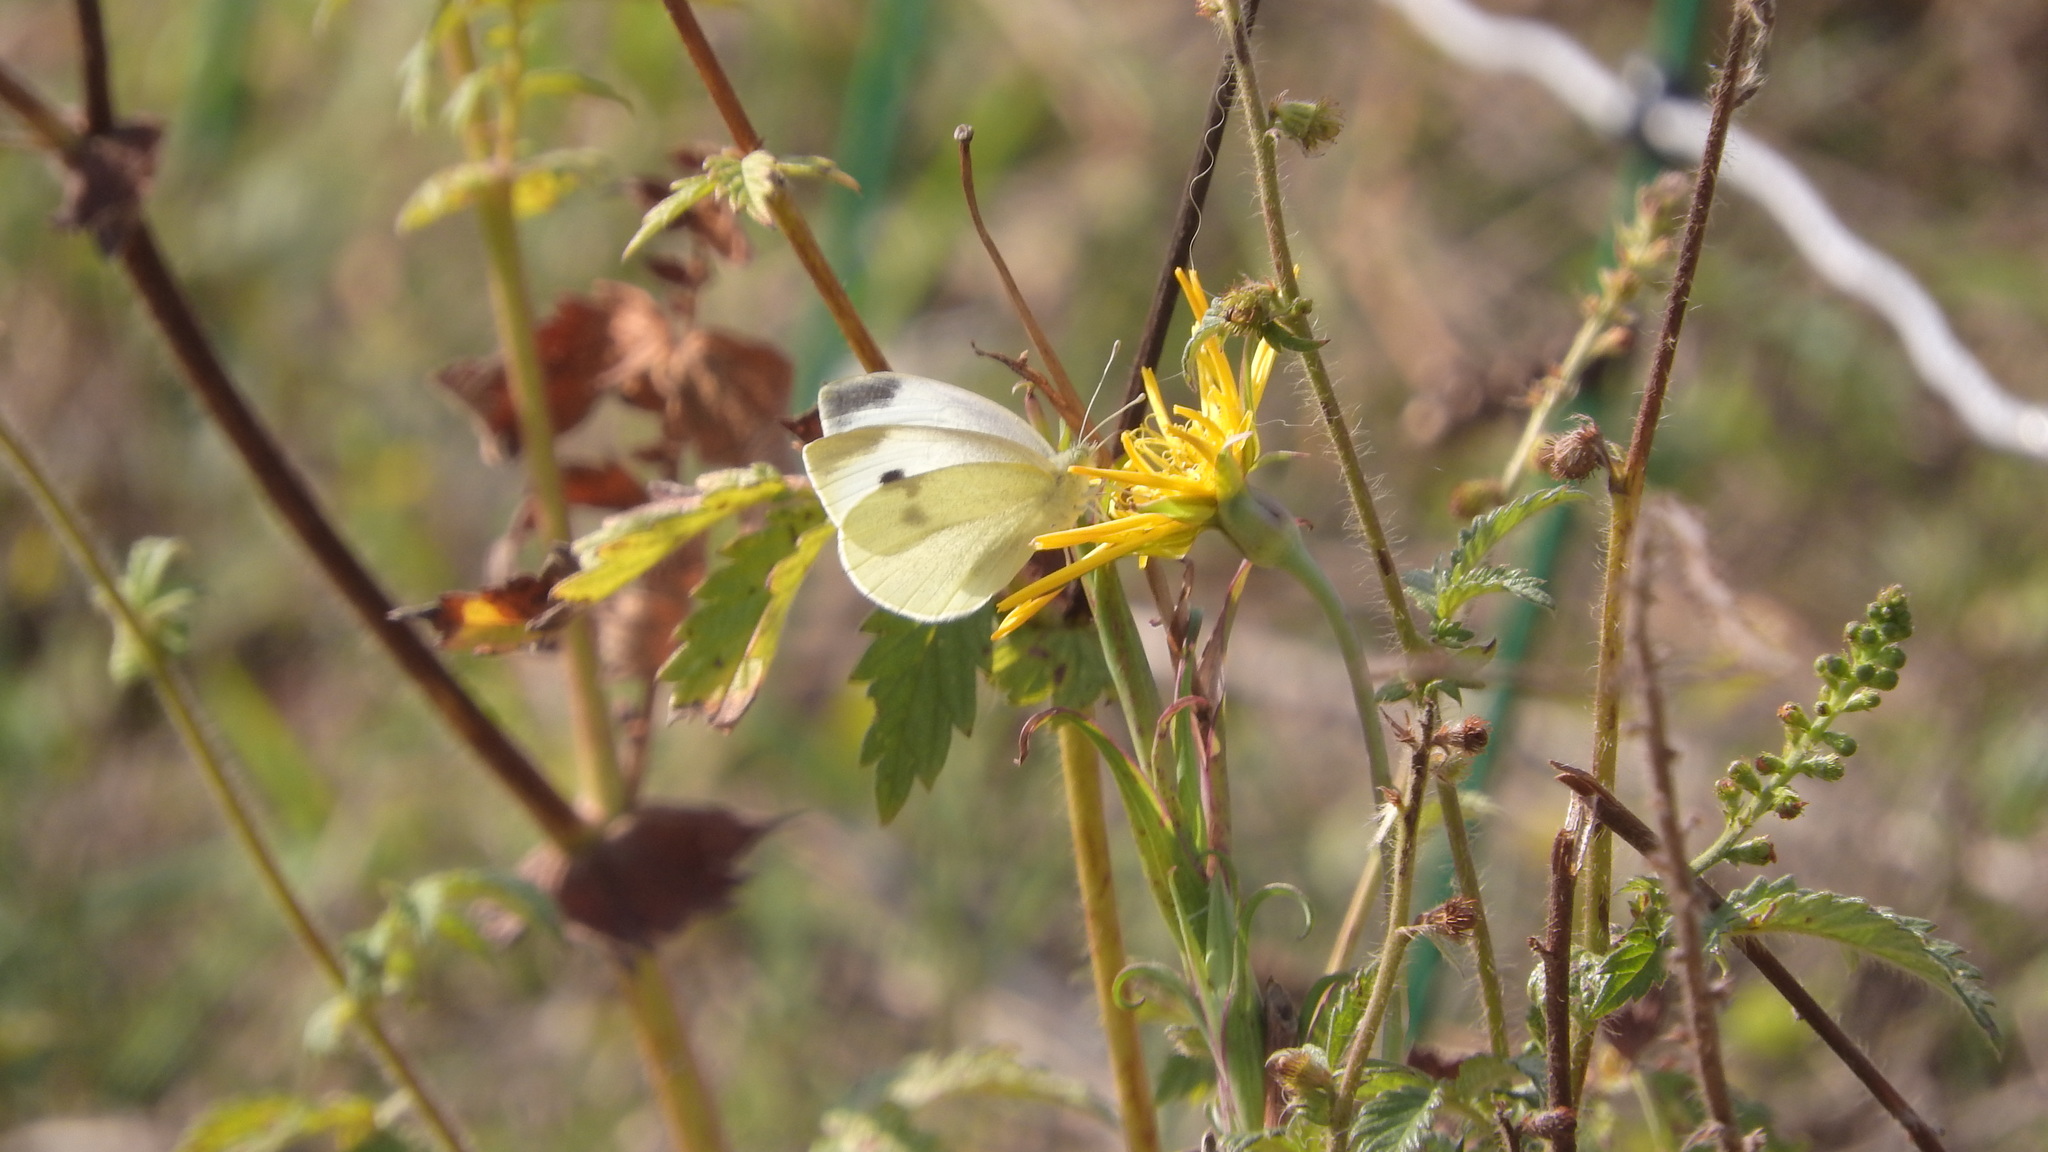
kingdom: Animalia
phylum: Arthropoda
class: Insecta
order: Lepidoptera
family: Pieridae
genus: Pieris
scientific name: Pieris rapae
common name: Small white
